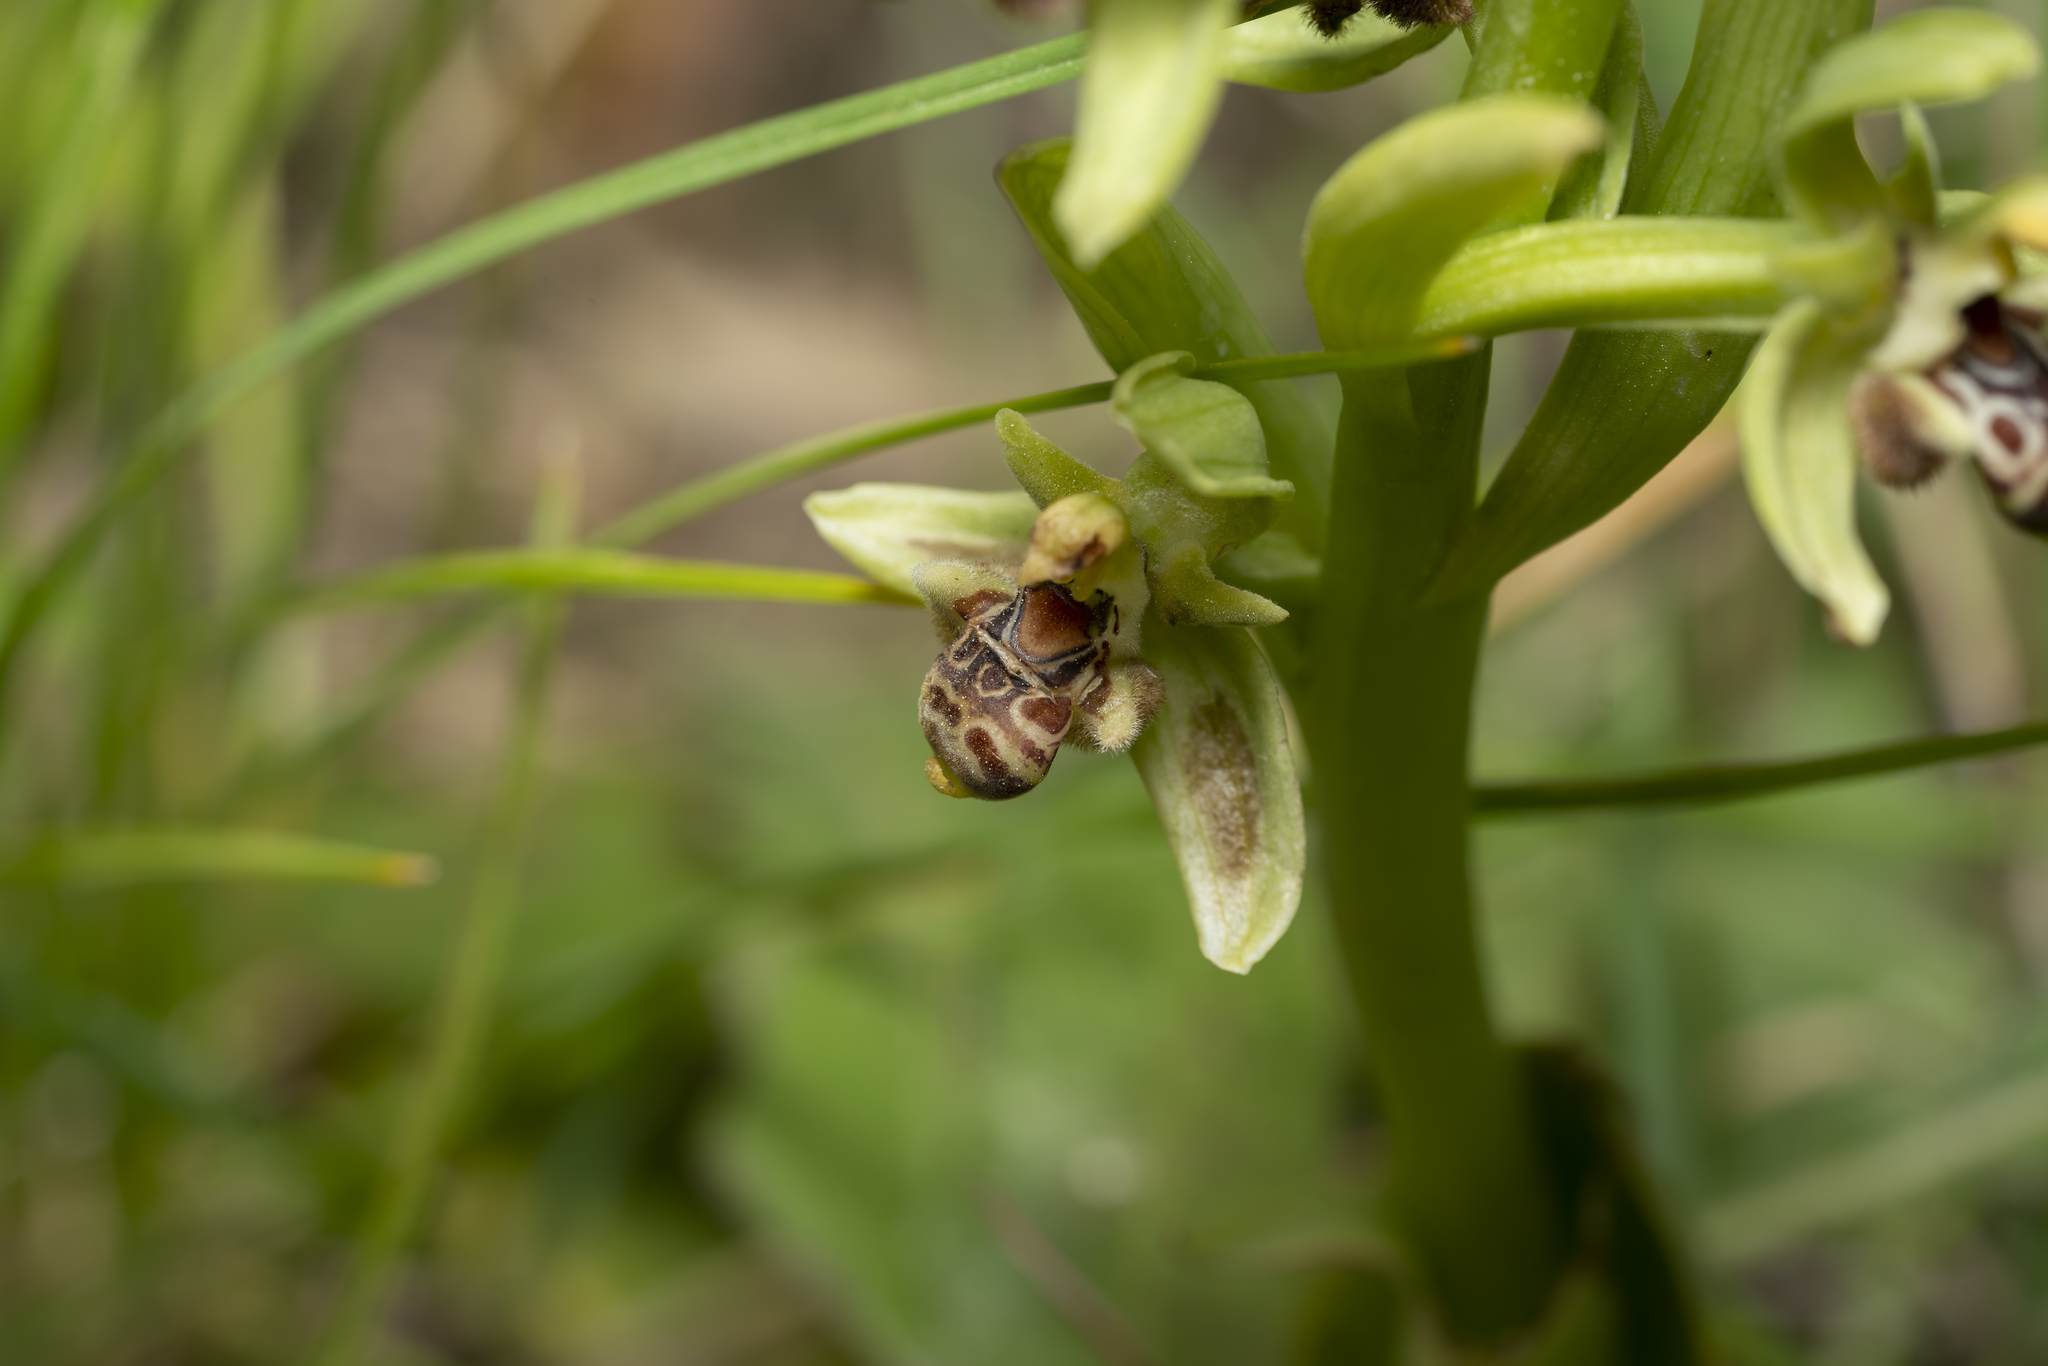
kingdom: Plantae
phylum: Tracheophyta
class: Liliopsida
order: Asparagales
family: Orchidaceae
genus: Ophrys
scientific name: Ophrys scolopax
